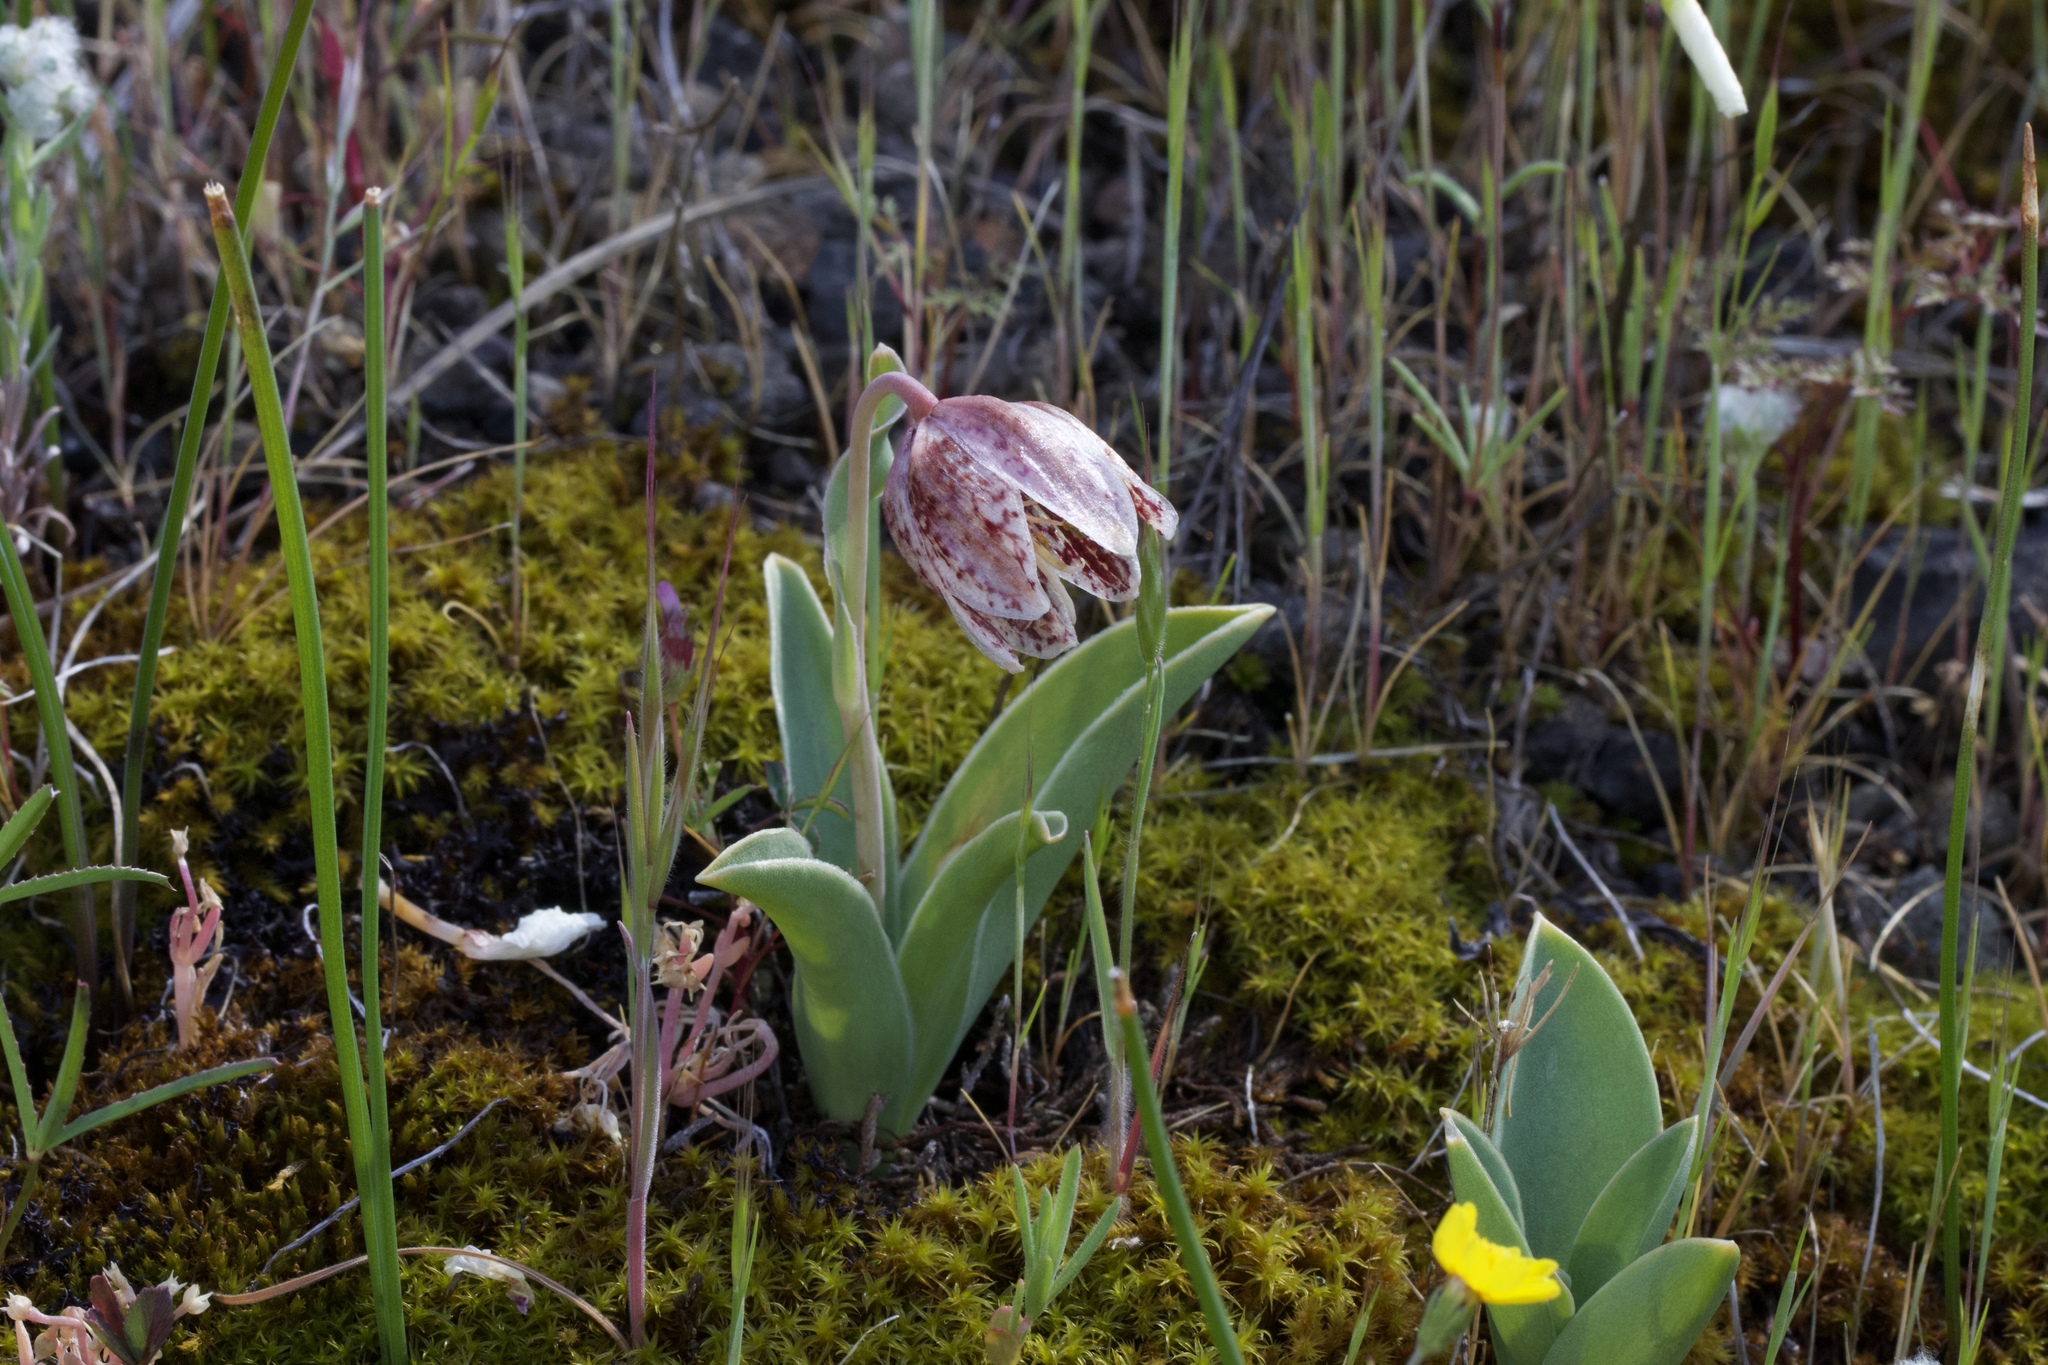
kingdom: Plantae
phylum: Tracheophyta
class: Liliopsida
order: Liliales
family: Liliaceae
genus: Fritillaria
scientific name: Fritillaria purdyi
